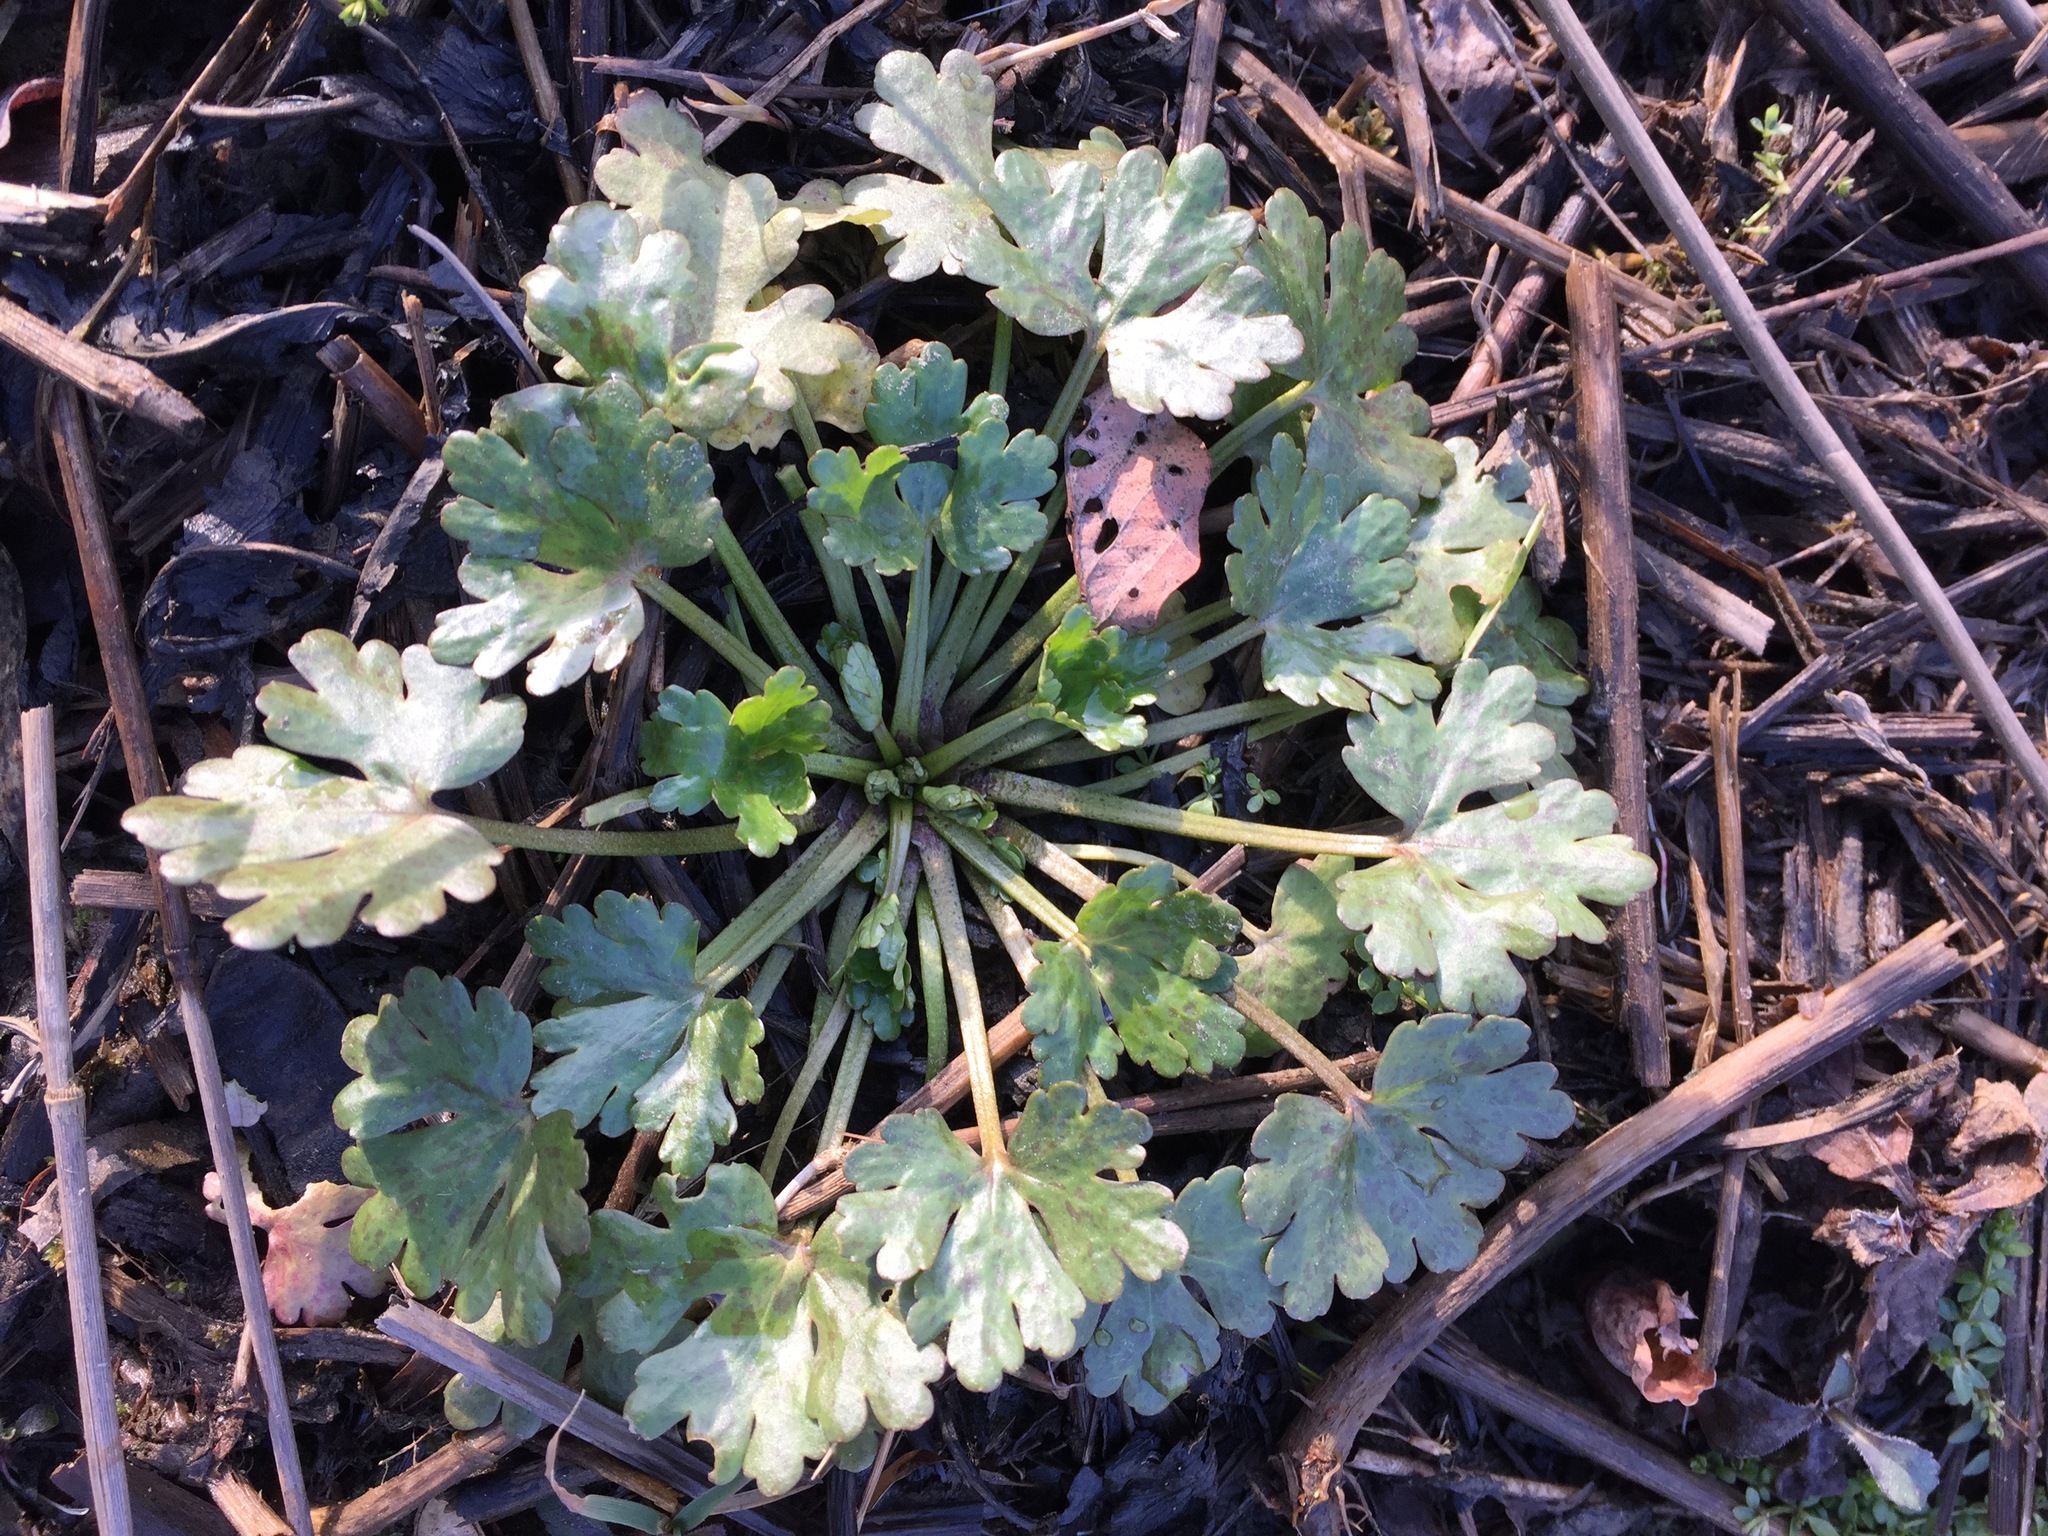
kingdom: Plantae
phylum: Tracheophyta
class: Magnoliopsida
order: Ranunculales
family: Ranunculaceae
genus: Ranunculus
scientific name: Ranunculus sceleratus
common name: Celery-leaved buttercup
